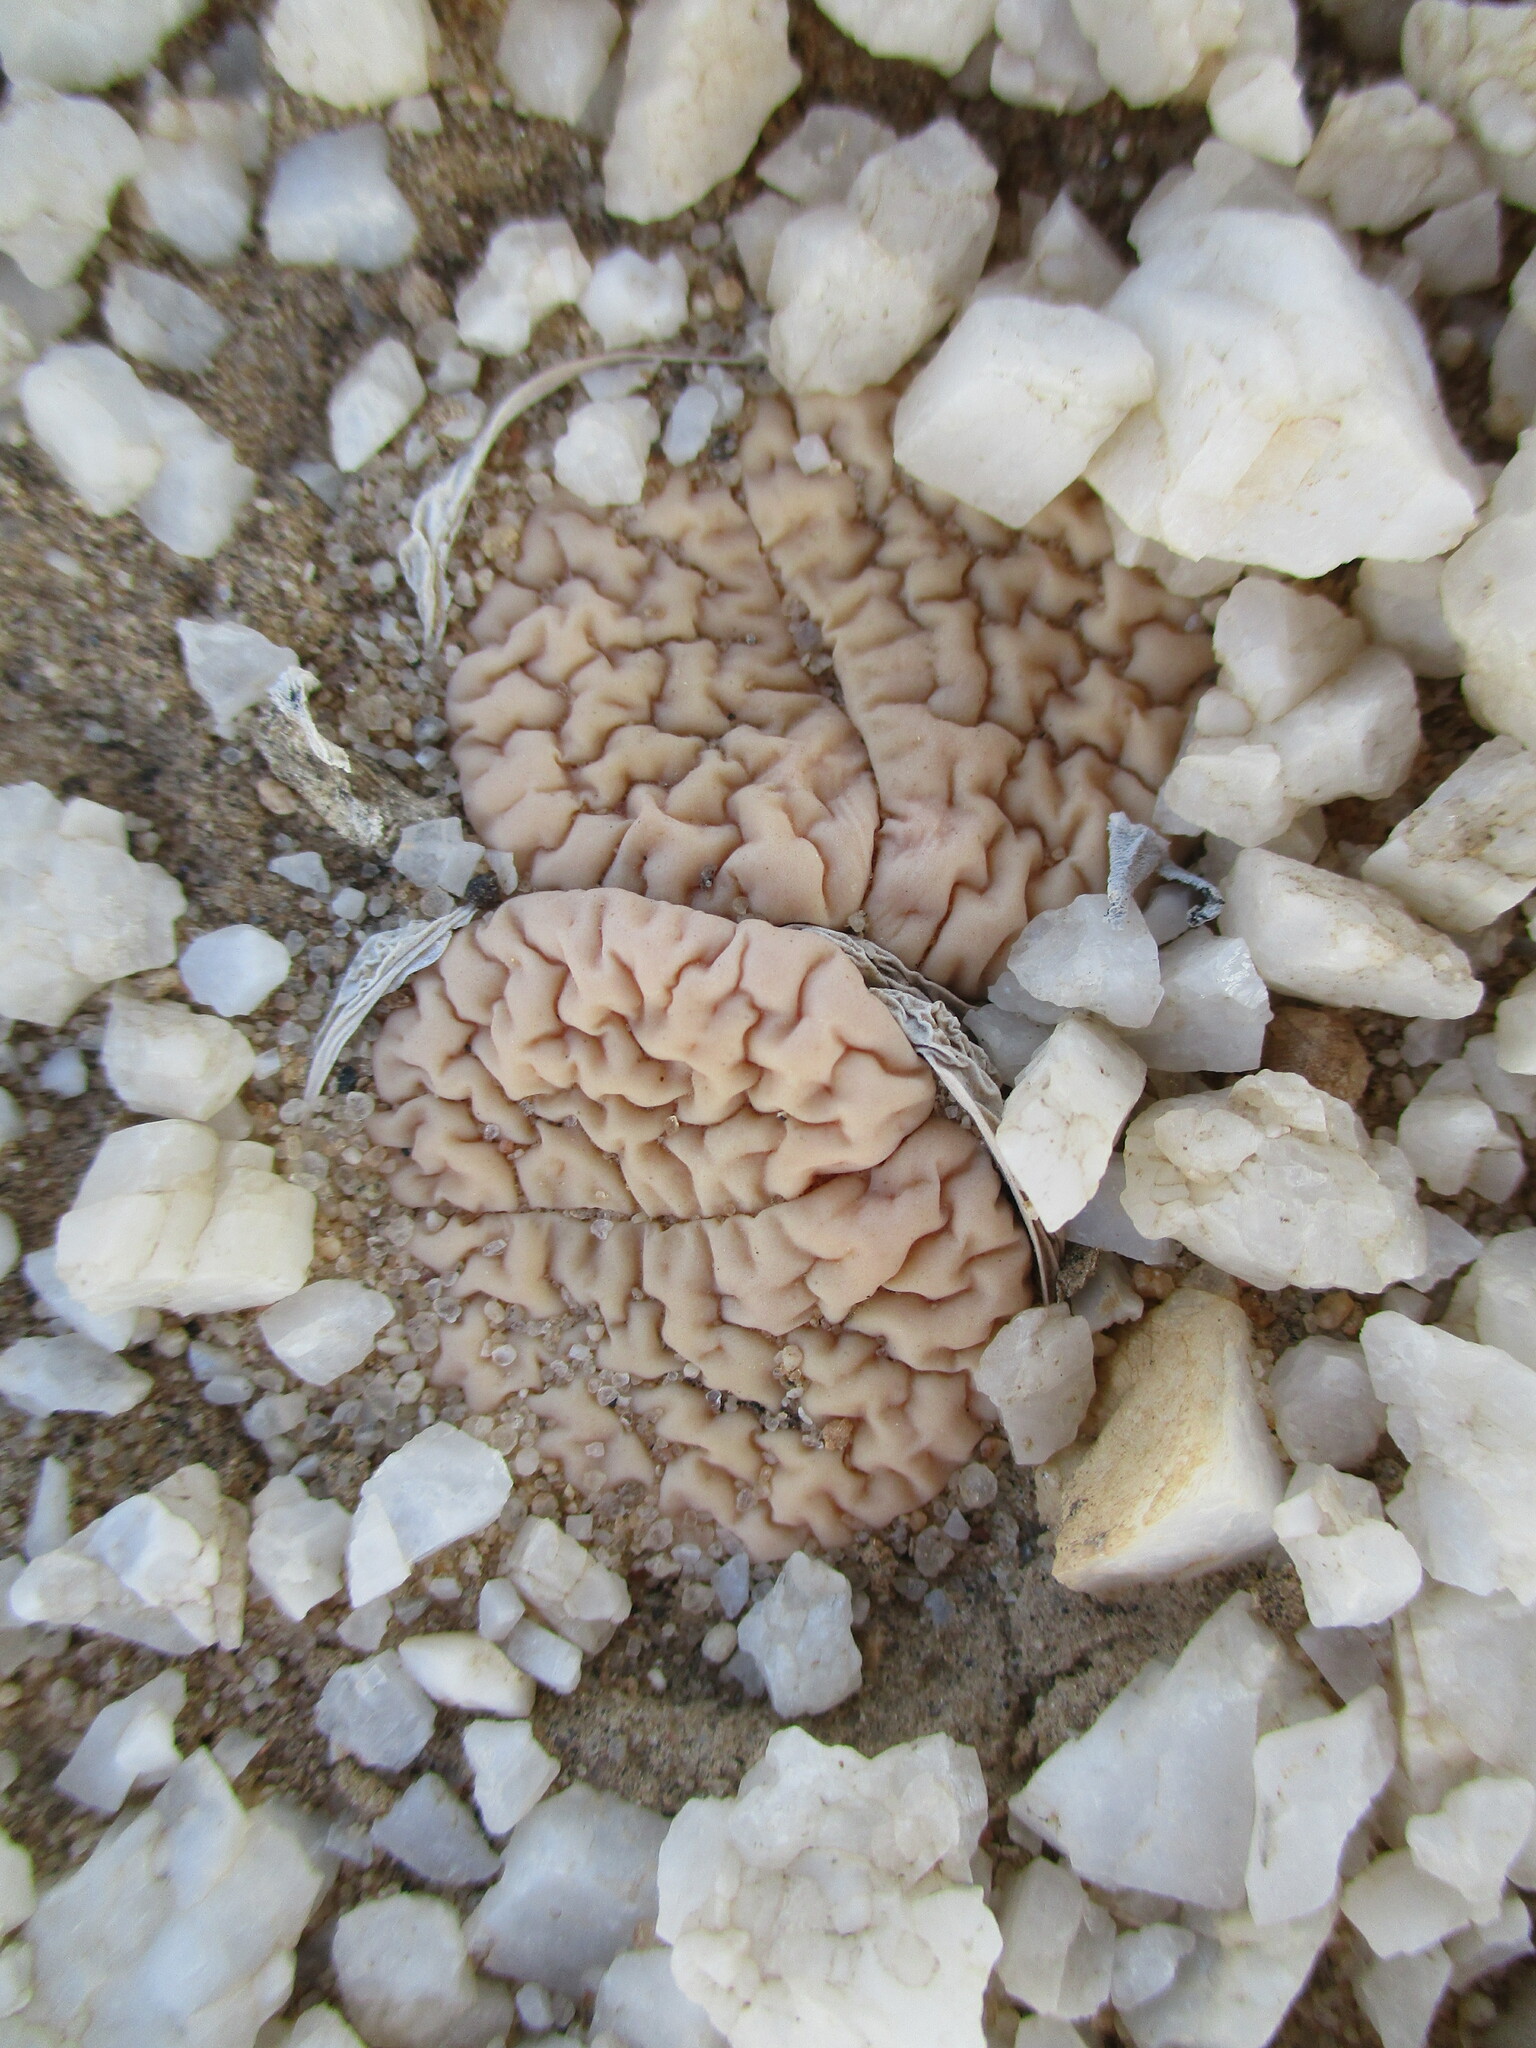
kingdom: Plantae
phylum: Tracheophyta
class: Magnoliopsida
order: Caryophyllales
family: Aizoaceae
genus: Lithops
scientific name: Lithops gracilidelineata
